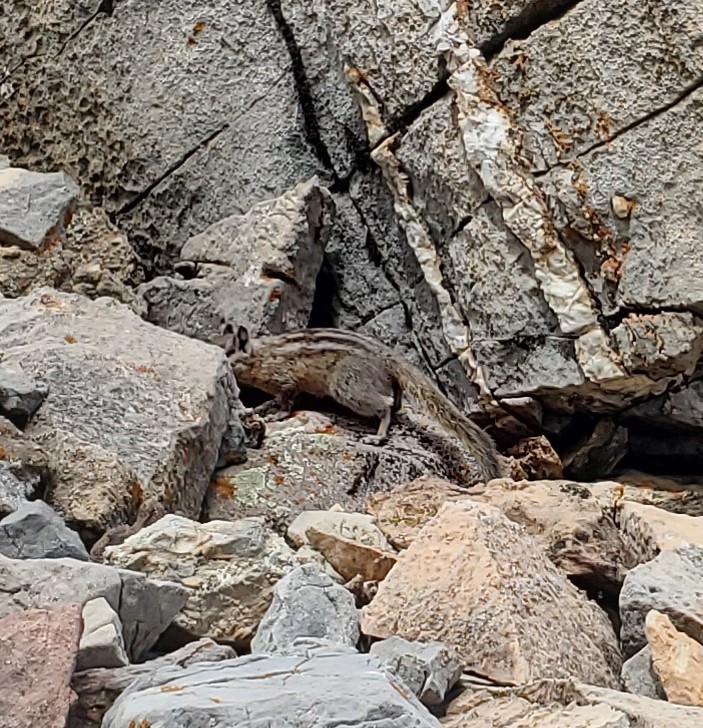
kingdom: Animalia
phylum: Chordata
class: Mammalia
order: Rodentia
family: Sciuridae
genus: Tamias
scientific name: Tamias umbrinus
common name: Uinta chipmunk
